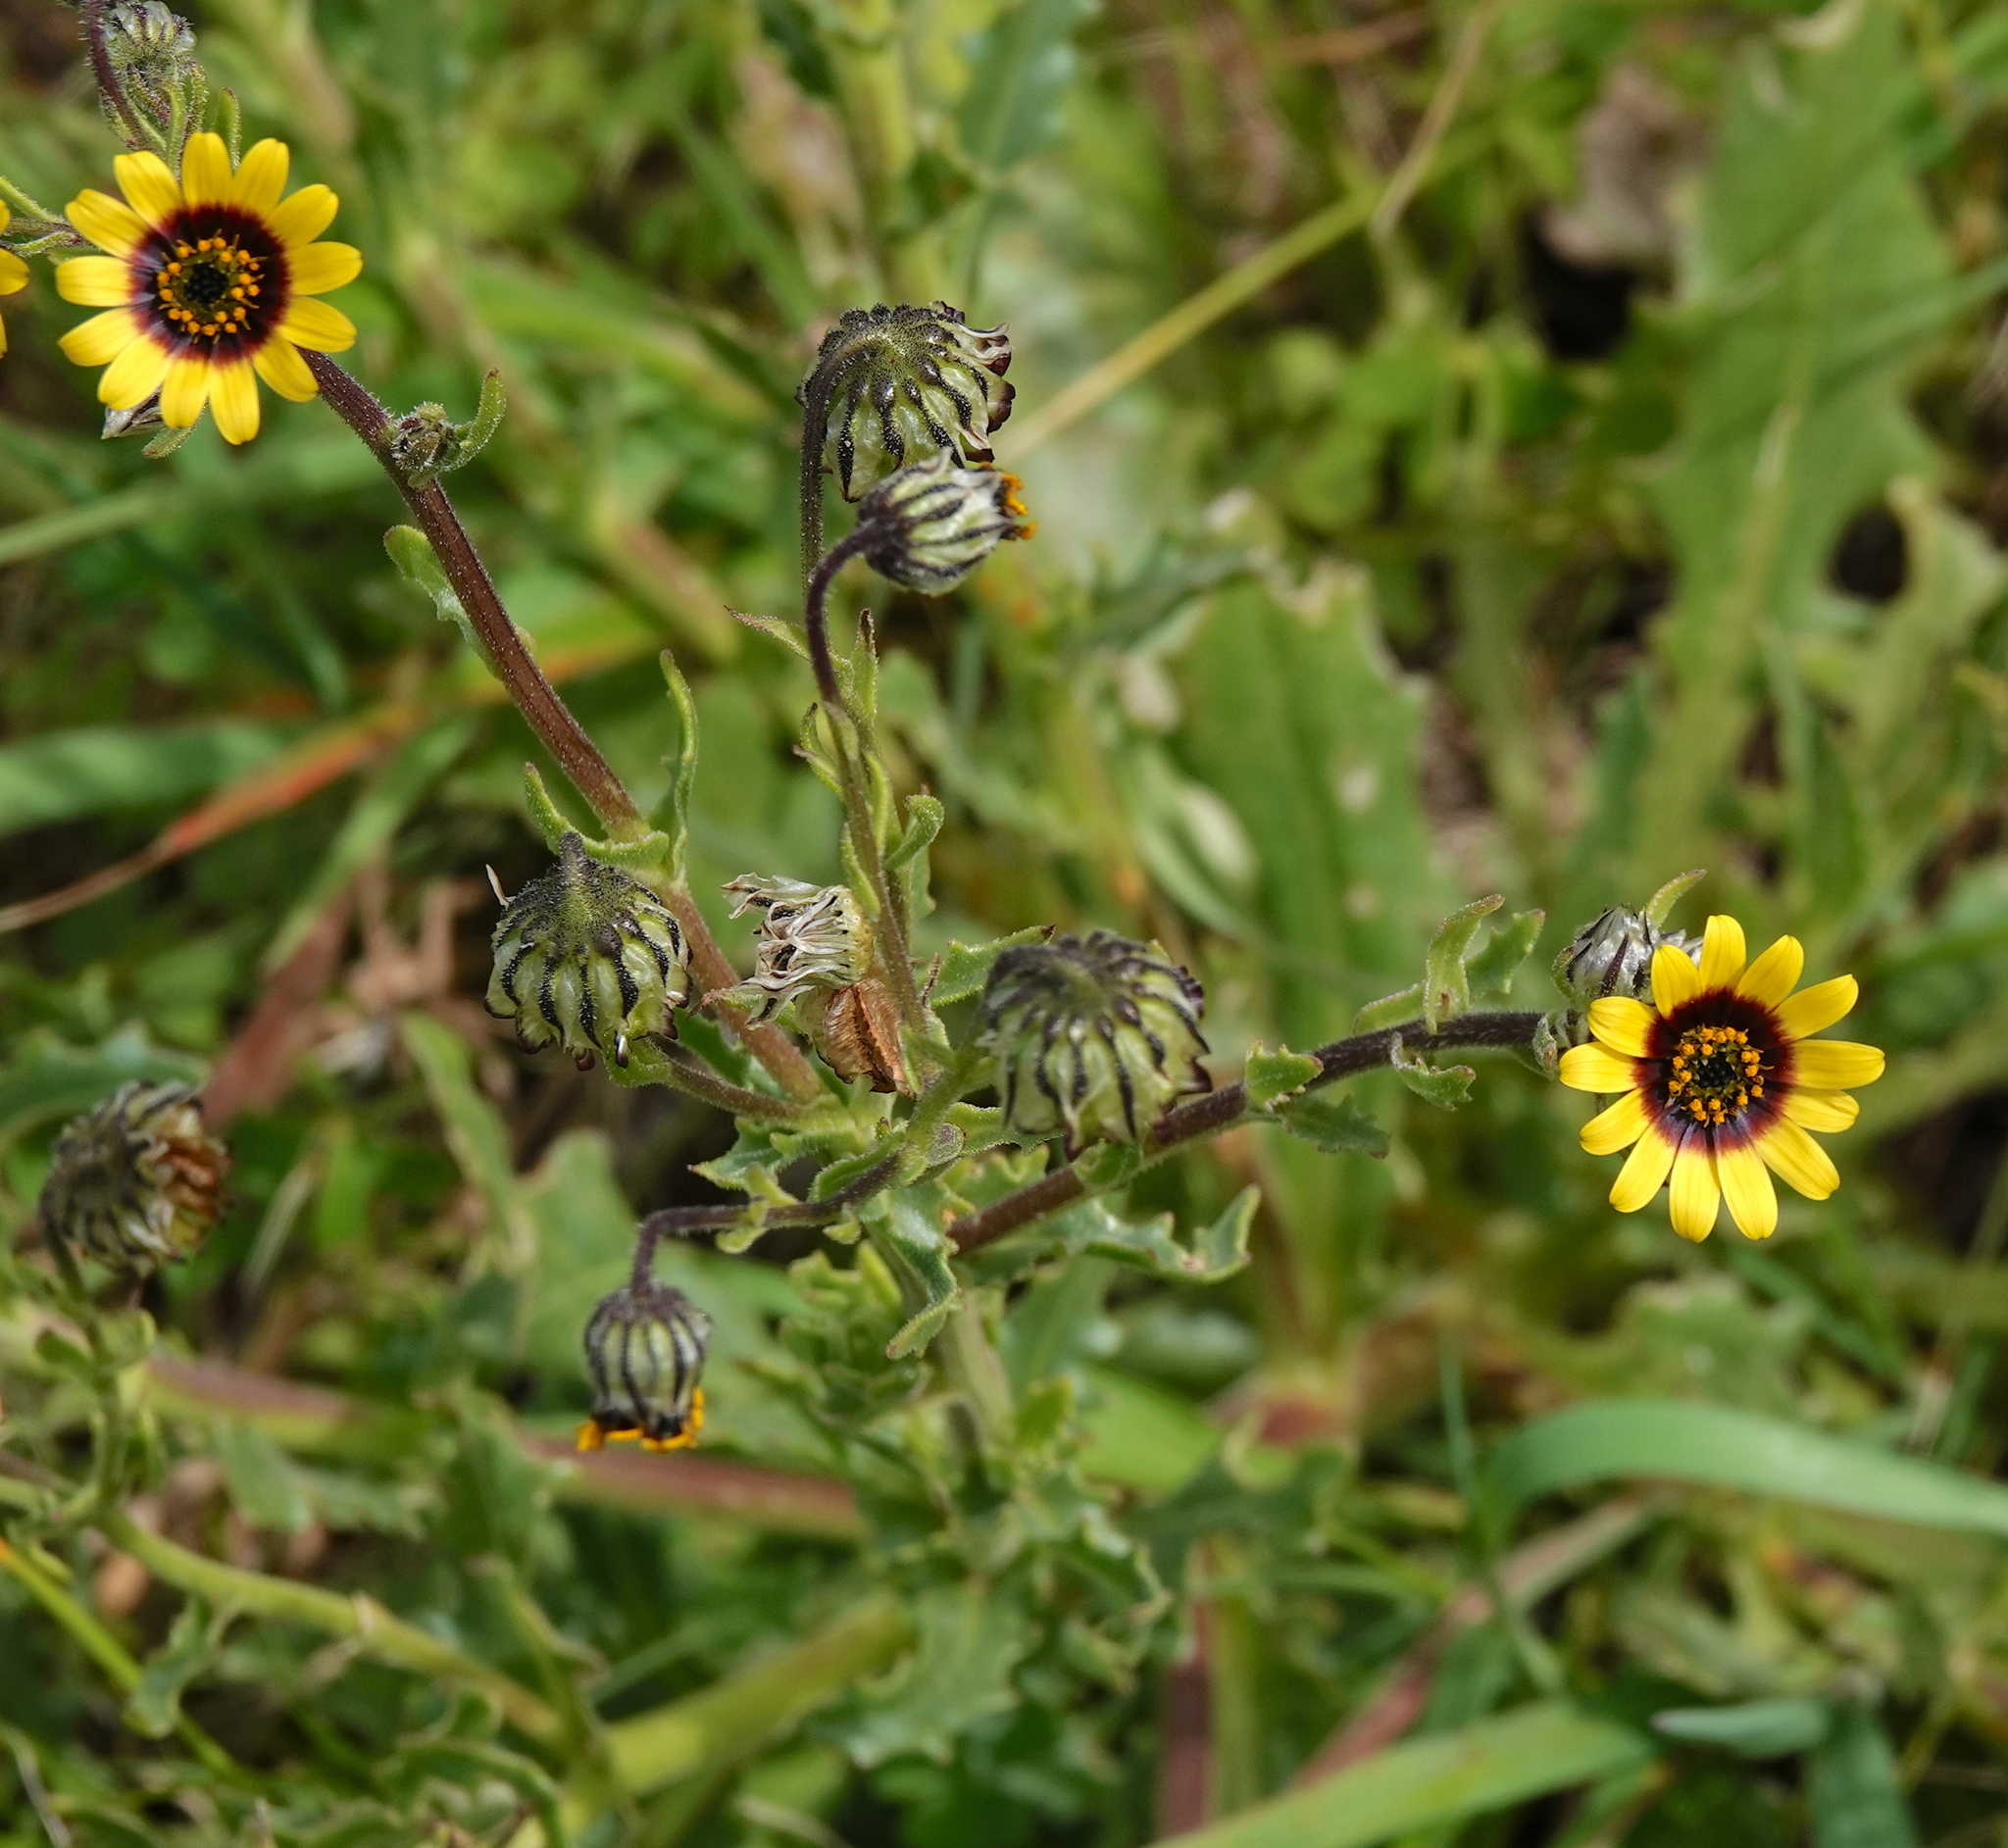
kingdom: Plantae
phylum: Tracheophyta
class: Magnoliopsida
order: Asterales
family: Asteraceae
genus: Osteospermum
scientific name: Osteospermum monstrosum
